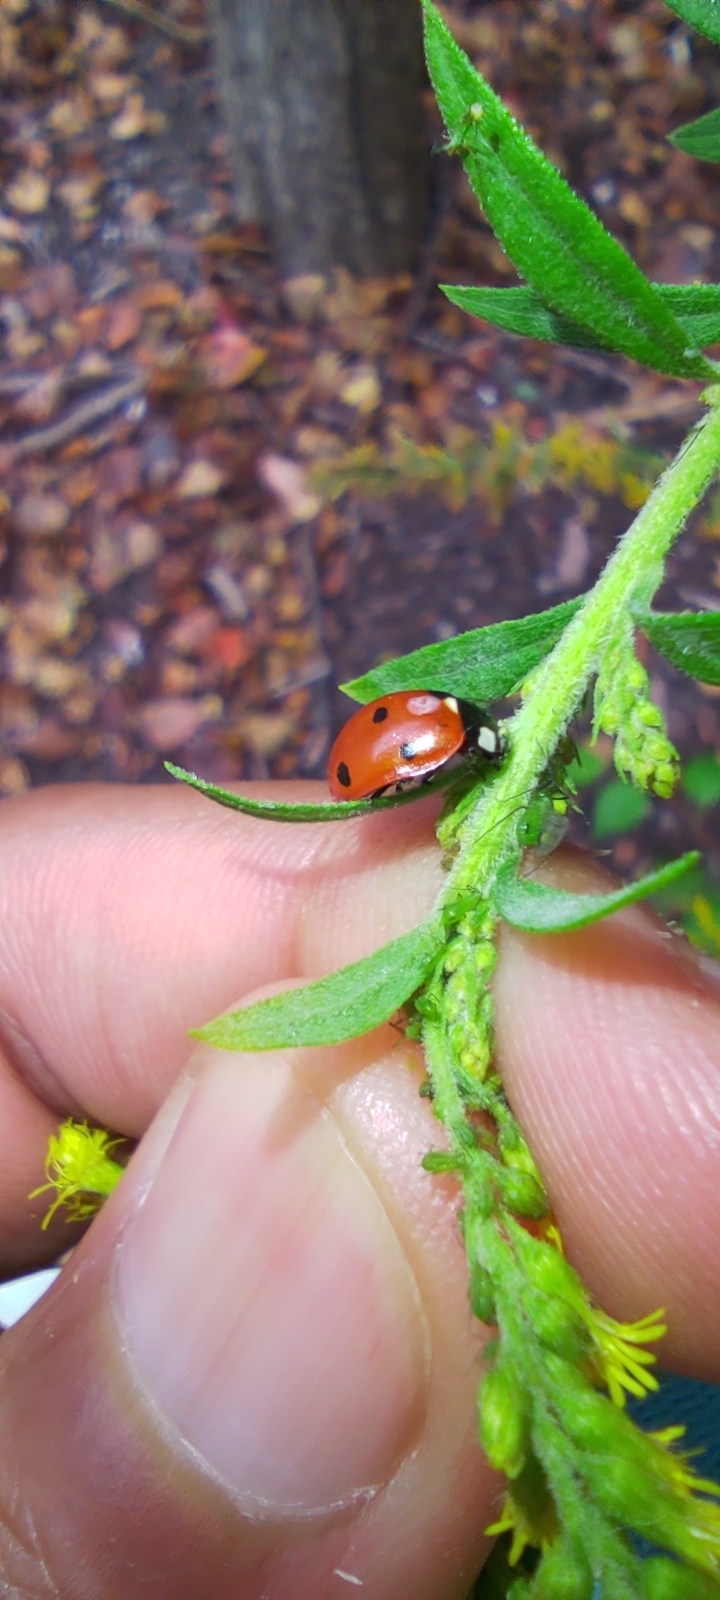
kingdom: Animalia
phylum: Arthropoda
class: Insecta
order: Coleoptera
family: Coccinellidae
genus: Coccinella
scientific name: Coccinella septempunctata
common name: Sevenspotted lady beetle
